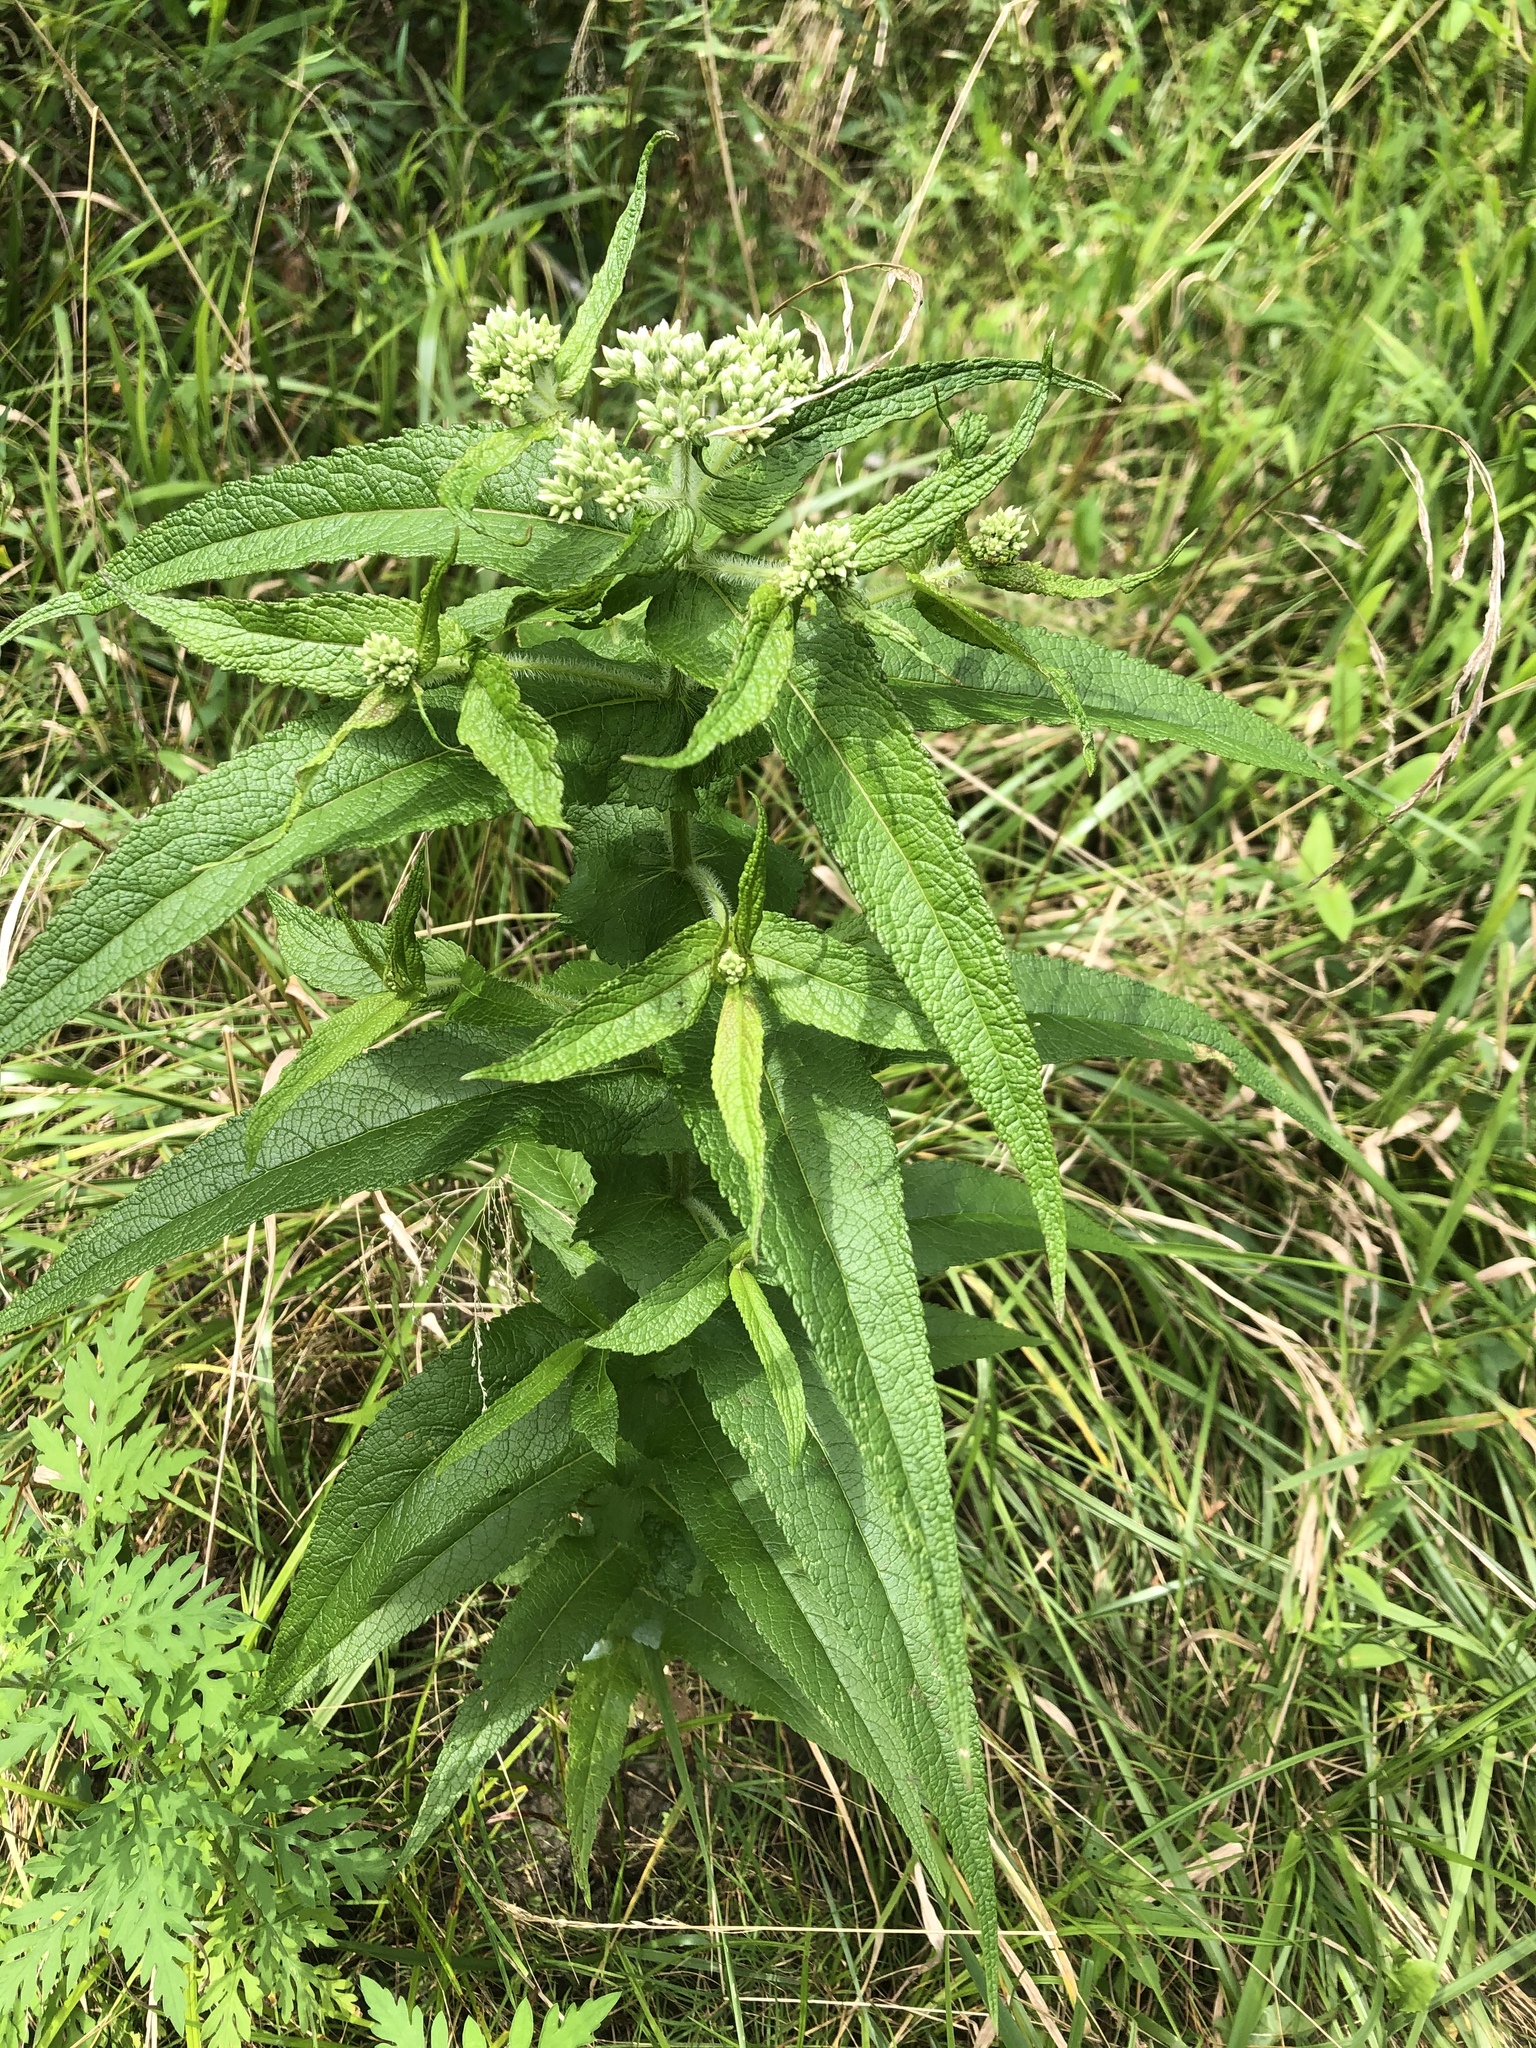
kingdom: Plantae
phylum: Tracheophyta
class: Magnoliopsida
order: Asterales
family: Asteraceae
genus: Eupatorium
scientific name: Eupatorium perfoliatum
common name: Boneset
